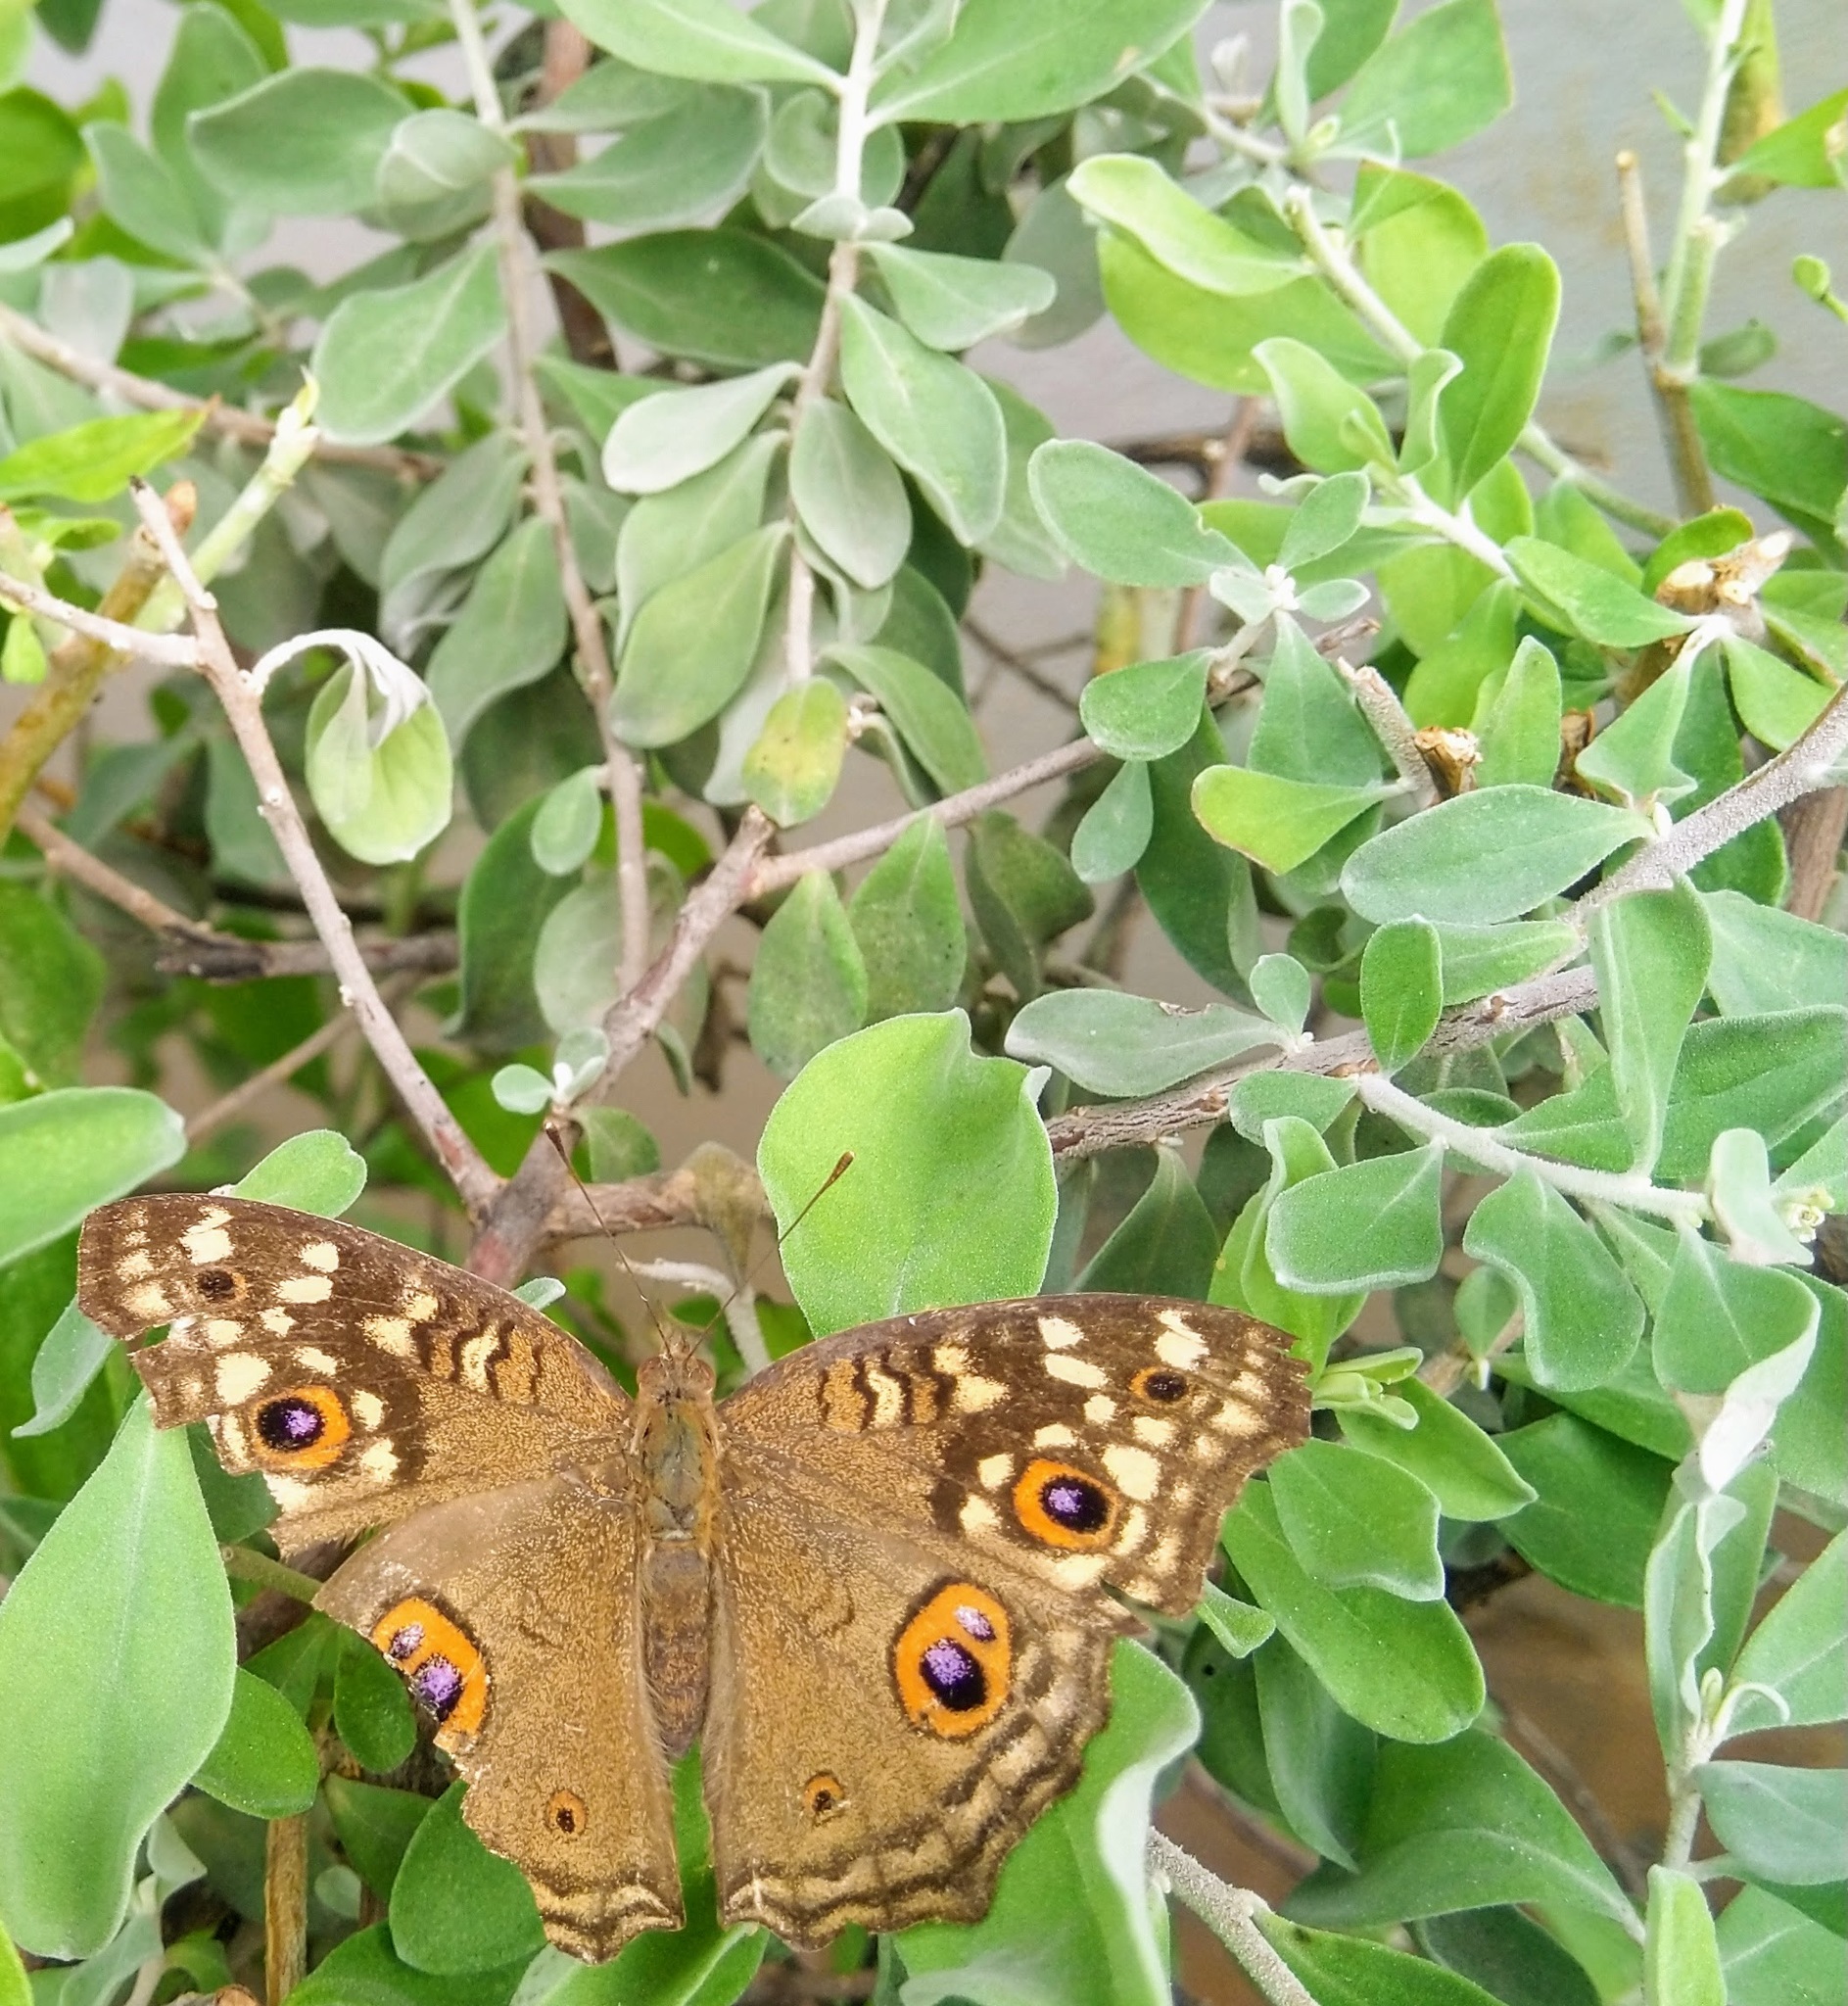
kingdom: Animalia
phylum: Arthropoda
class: Insecta
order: Lepidoptera
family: Nymphalidae
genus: Junonia
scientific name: Junonia lemonias
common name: Lemon pansy
